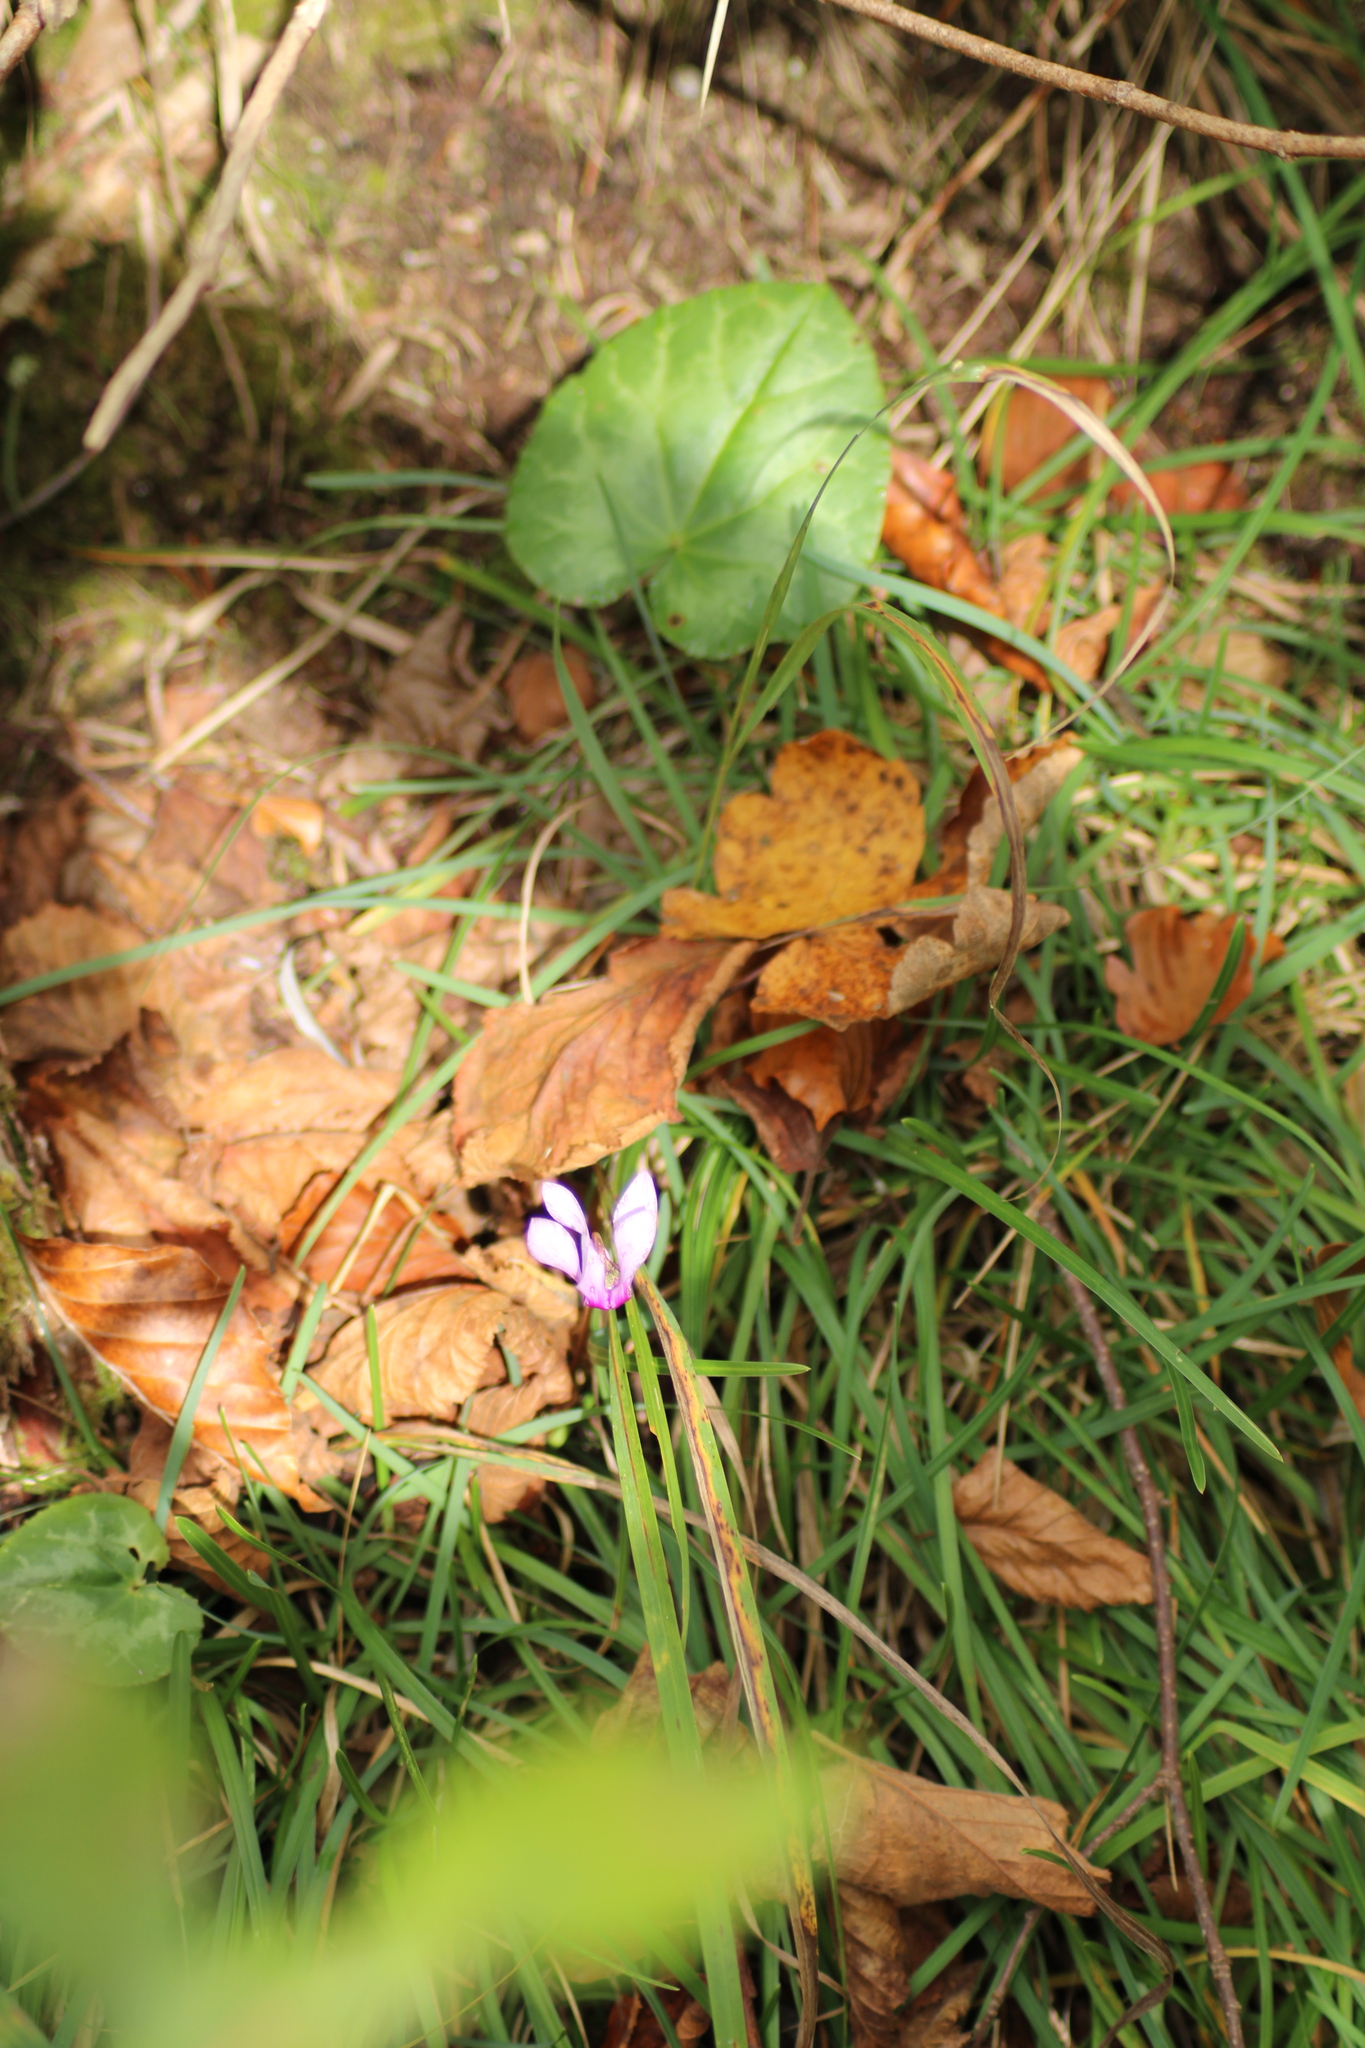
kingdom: Plantae
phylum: Tracheophyta
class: Magnoliopsida
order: Ericales
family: Primulaceae
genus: Cyclamen
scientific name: Cyclamen purpurascens
